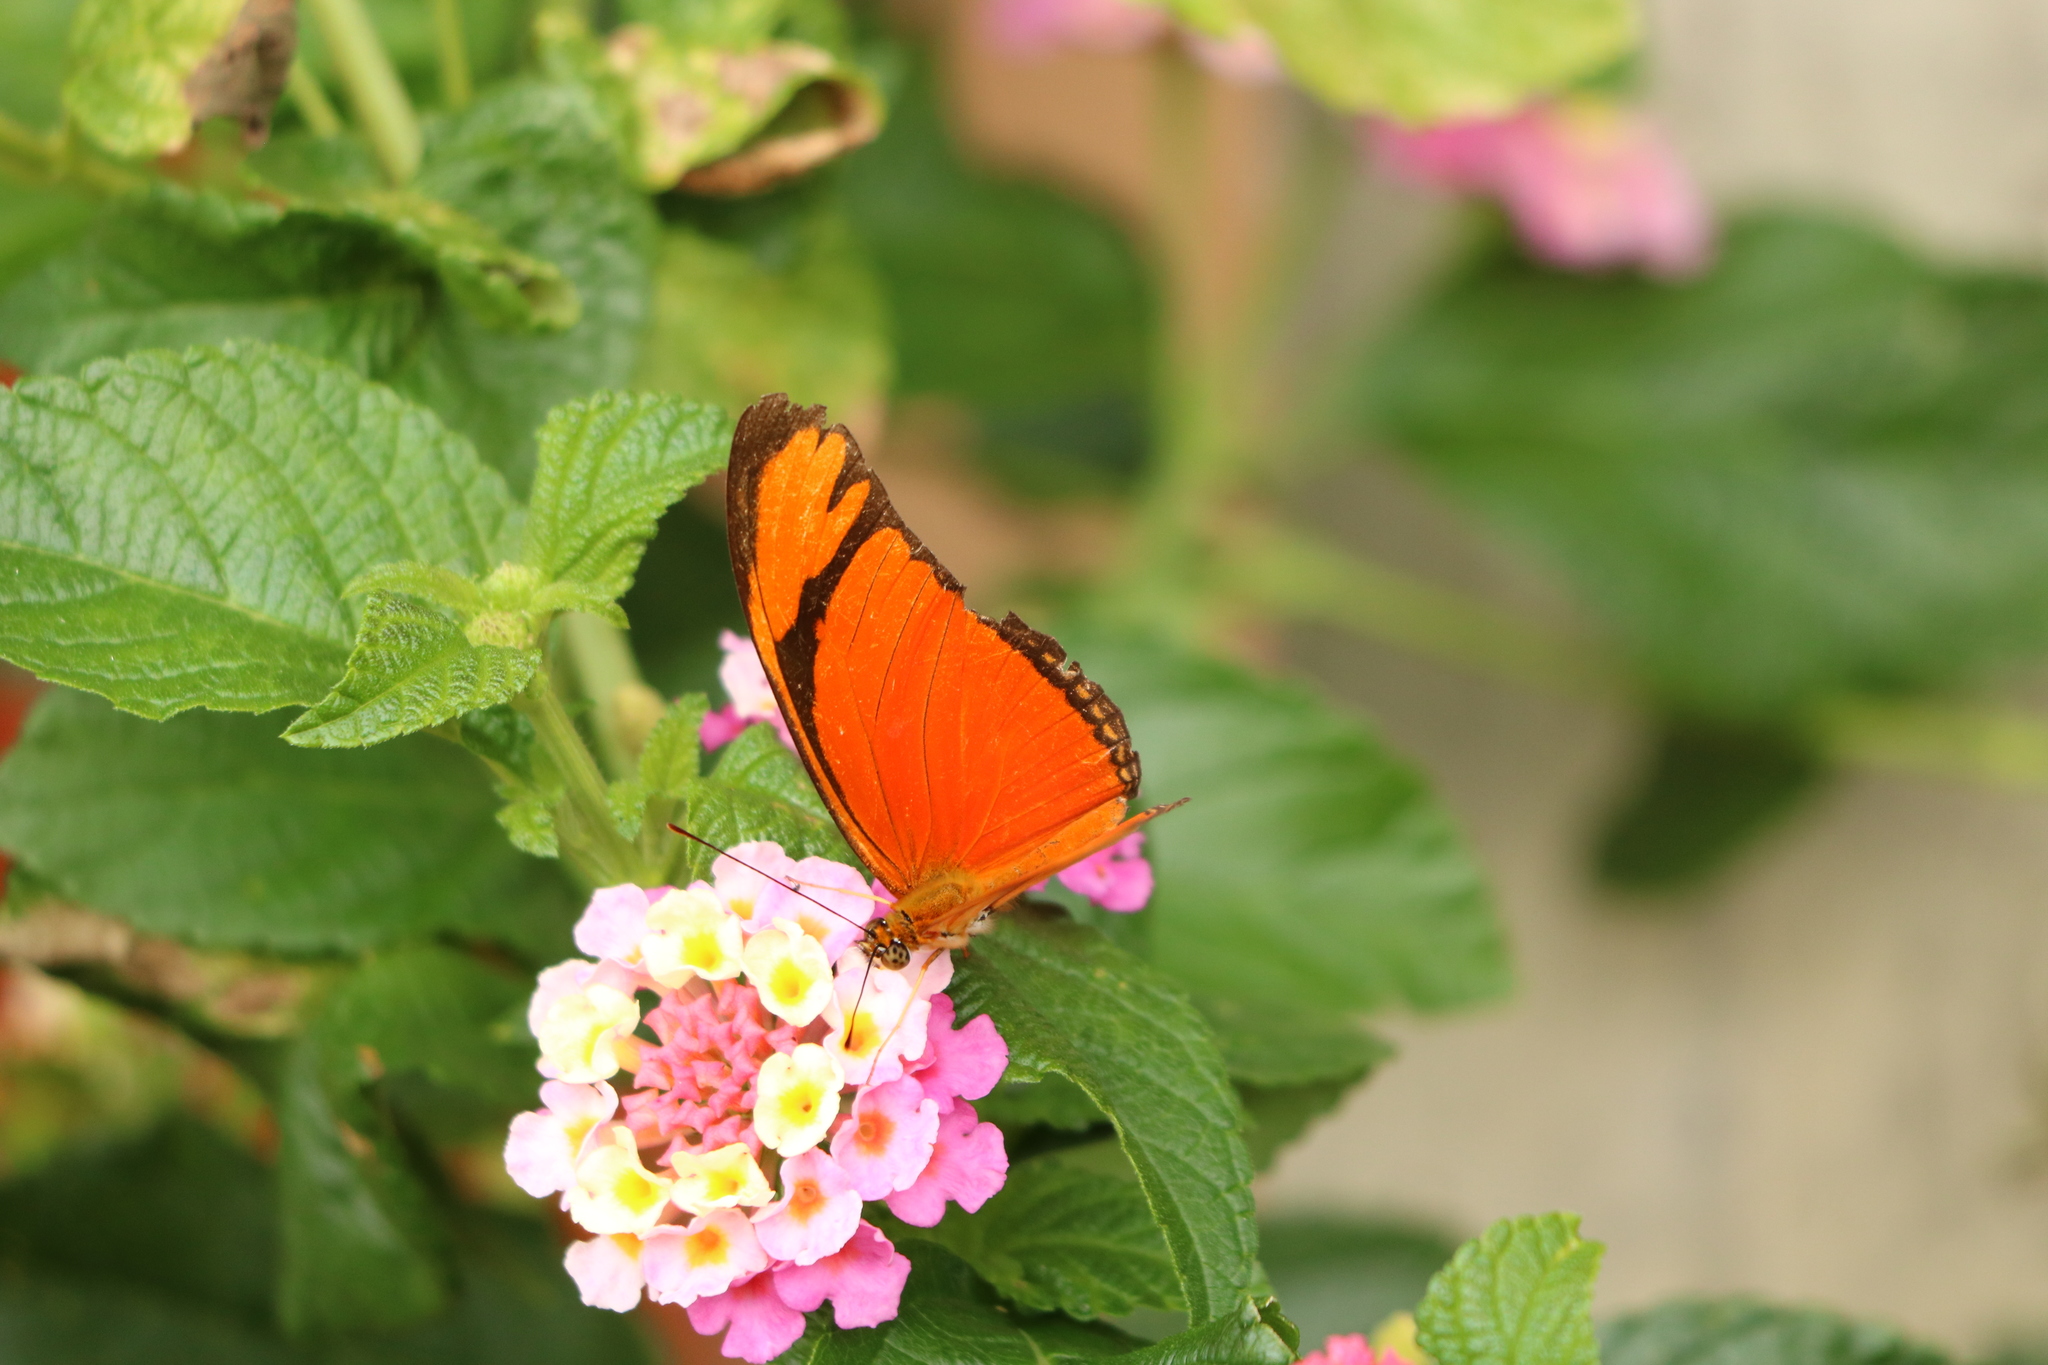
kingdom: Animalia
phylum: Arthropoda
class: Insecta
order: Lepidoptera
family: Nymphalidae
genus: Dryas
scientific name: Dryas iulia
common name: Flambeau
